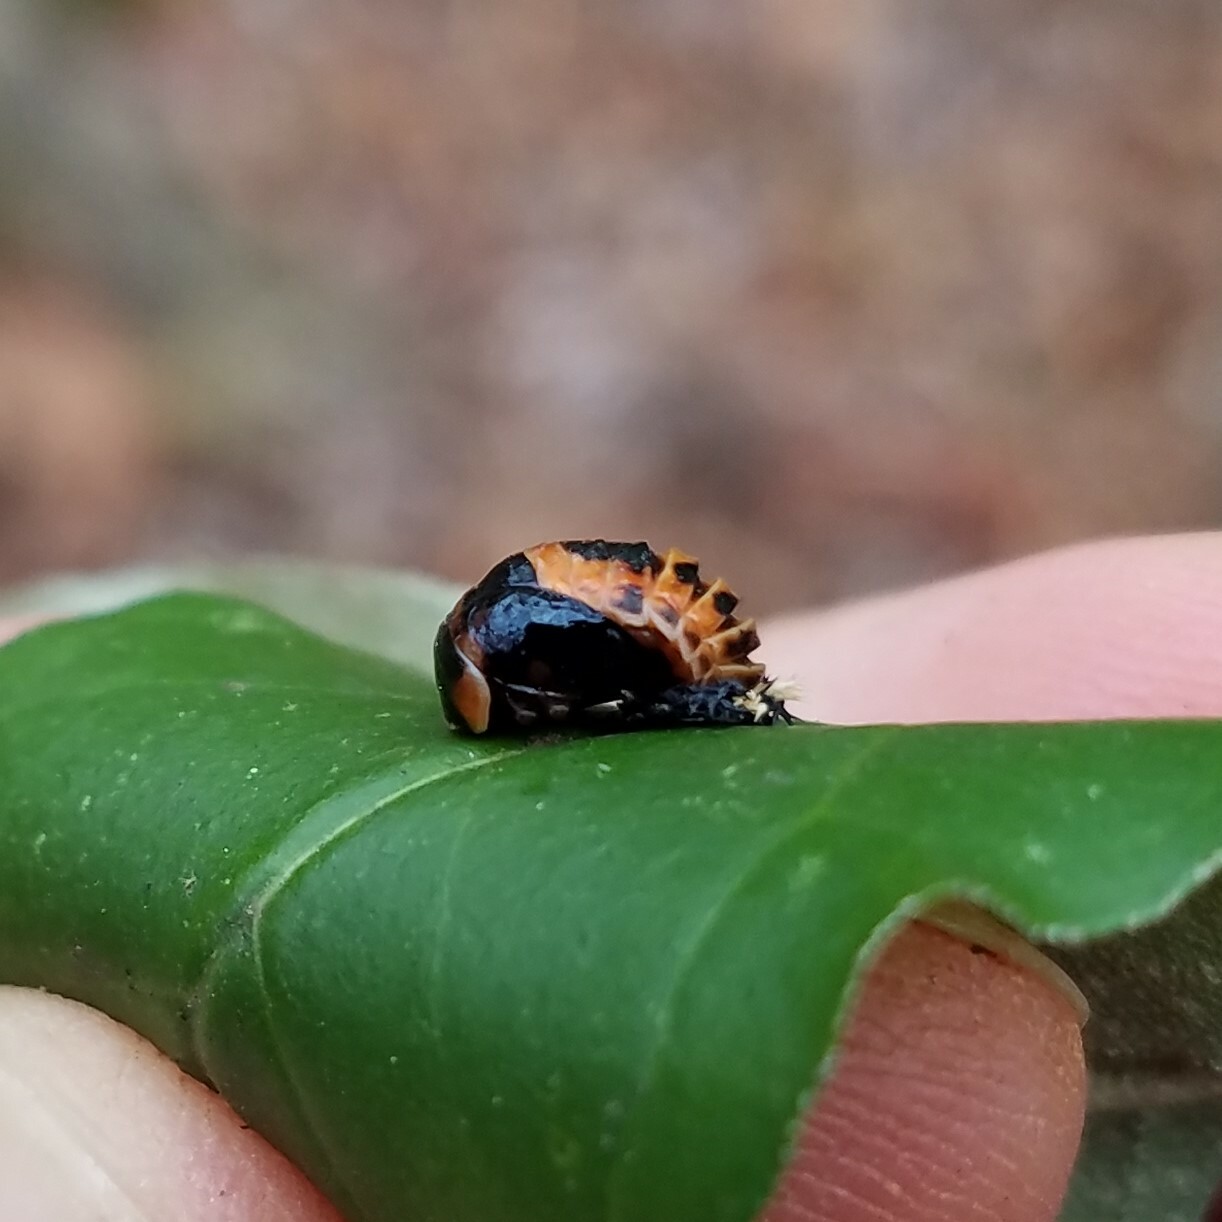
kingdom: Animalia
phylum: Arthropoda
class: Insecta
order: Coleoptera
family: Coccinellidae
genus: Harmonia
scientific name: Harmonia axyridis
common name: Harlequin ladybird
